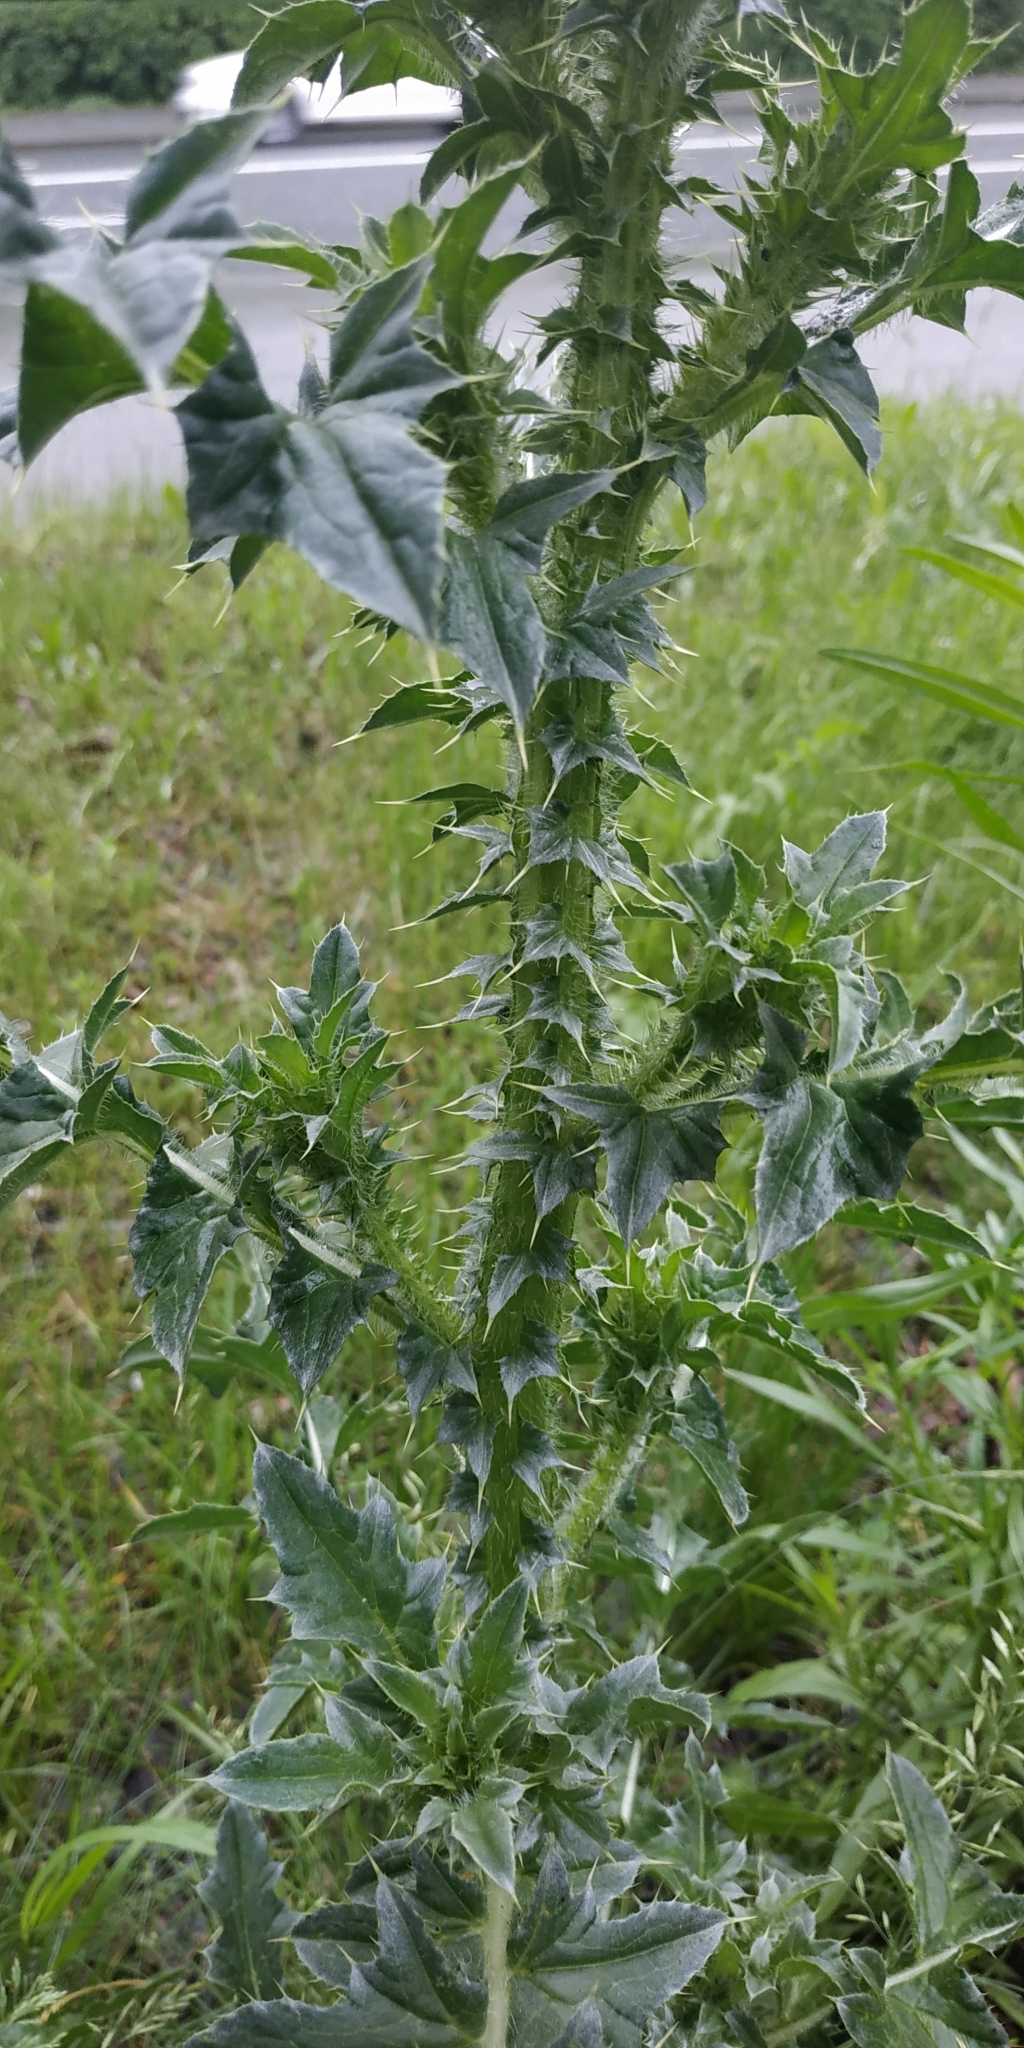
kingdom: Plantae
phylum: Tracheophyta
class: Magnoliopsida
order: Asterales
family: Asteraceae
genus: Carduus
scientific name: Carduus nutans
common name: Musk thistle
